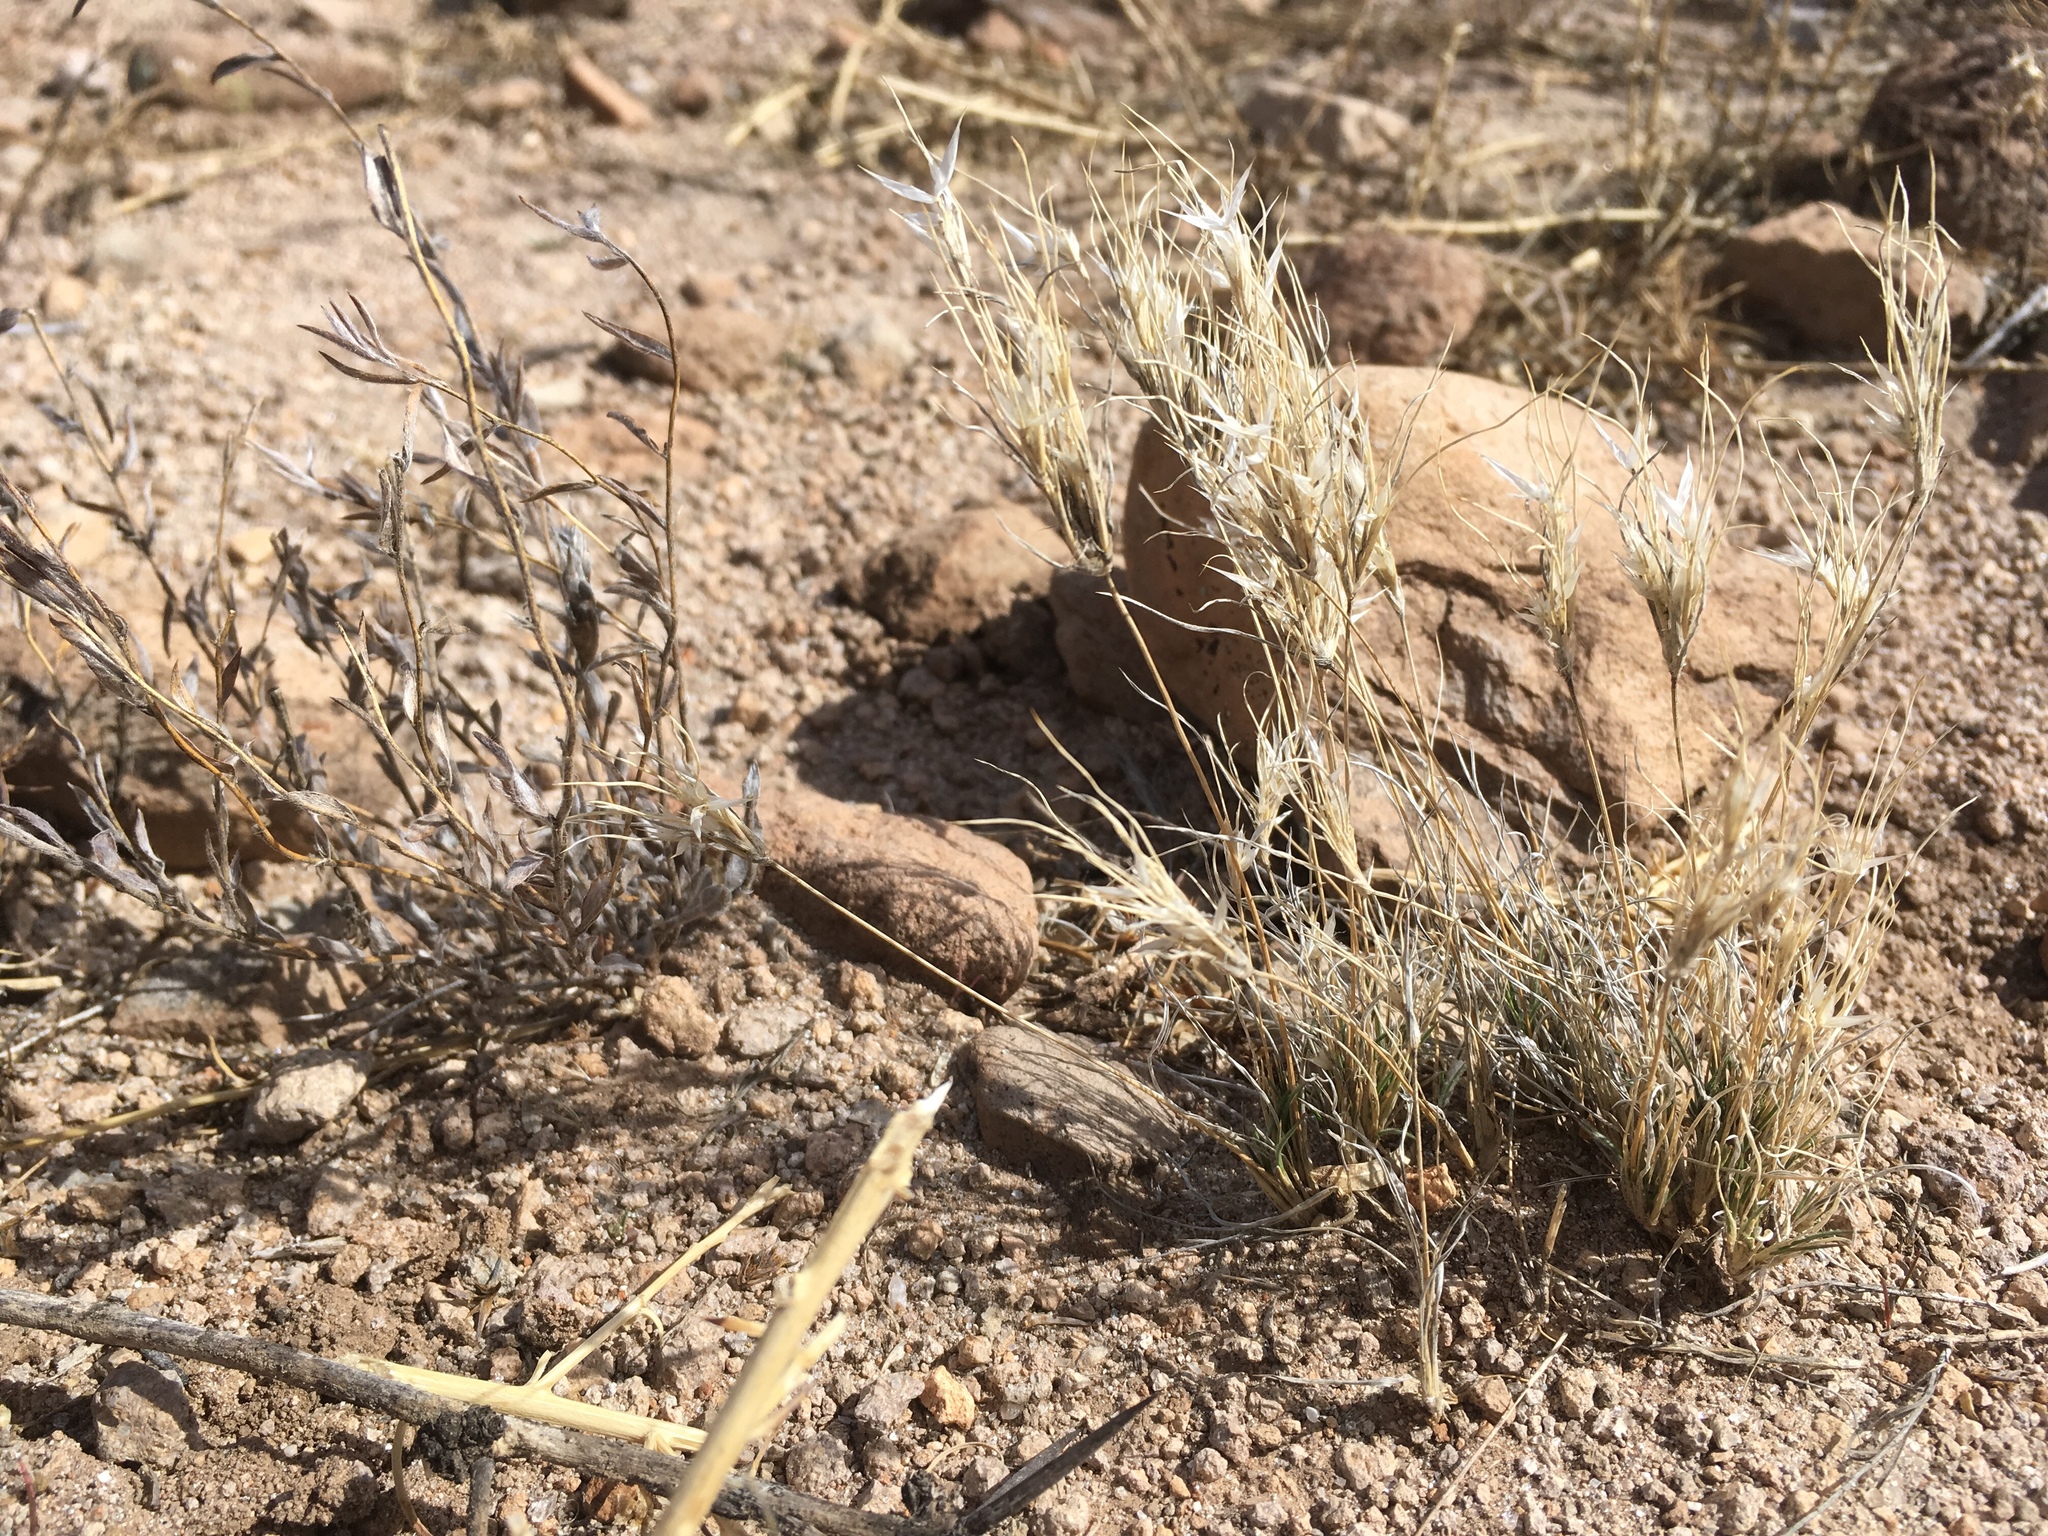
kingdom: Plantae
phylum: Tracheophyta
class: Liliopsida
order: Poales
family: Poaceae
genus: Dasyochloa
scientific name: Dasyochloa pulchella
